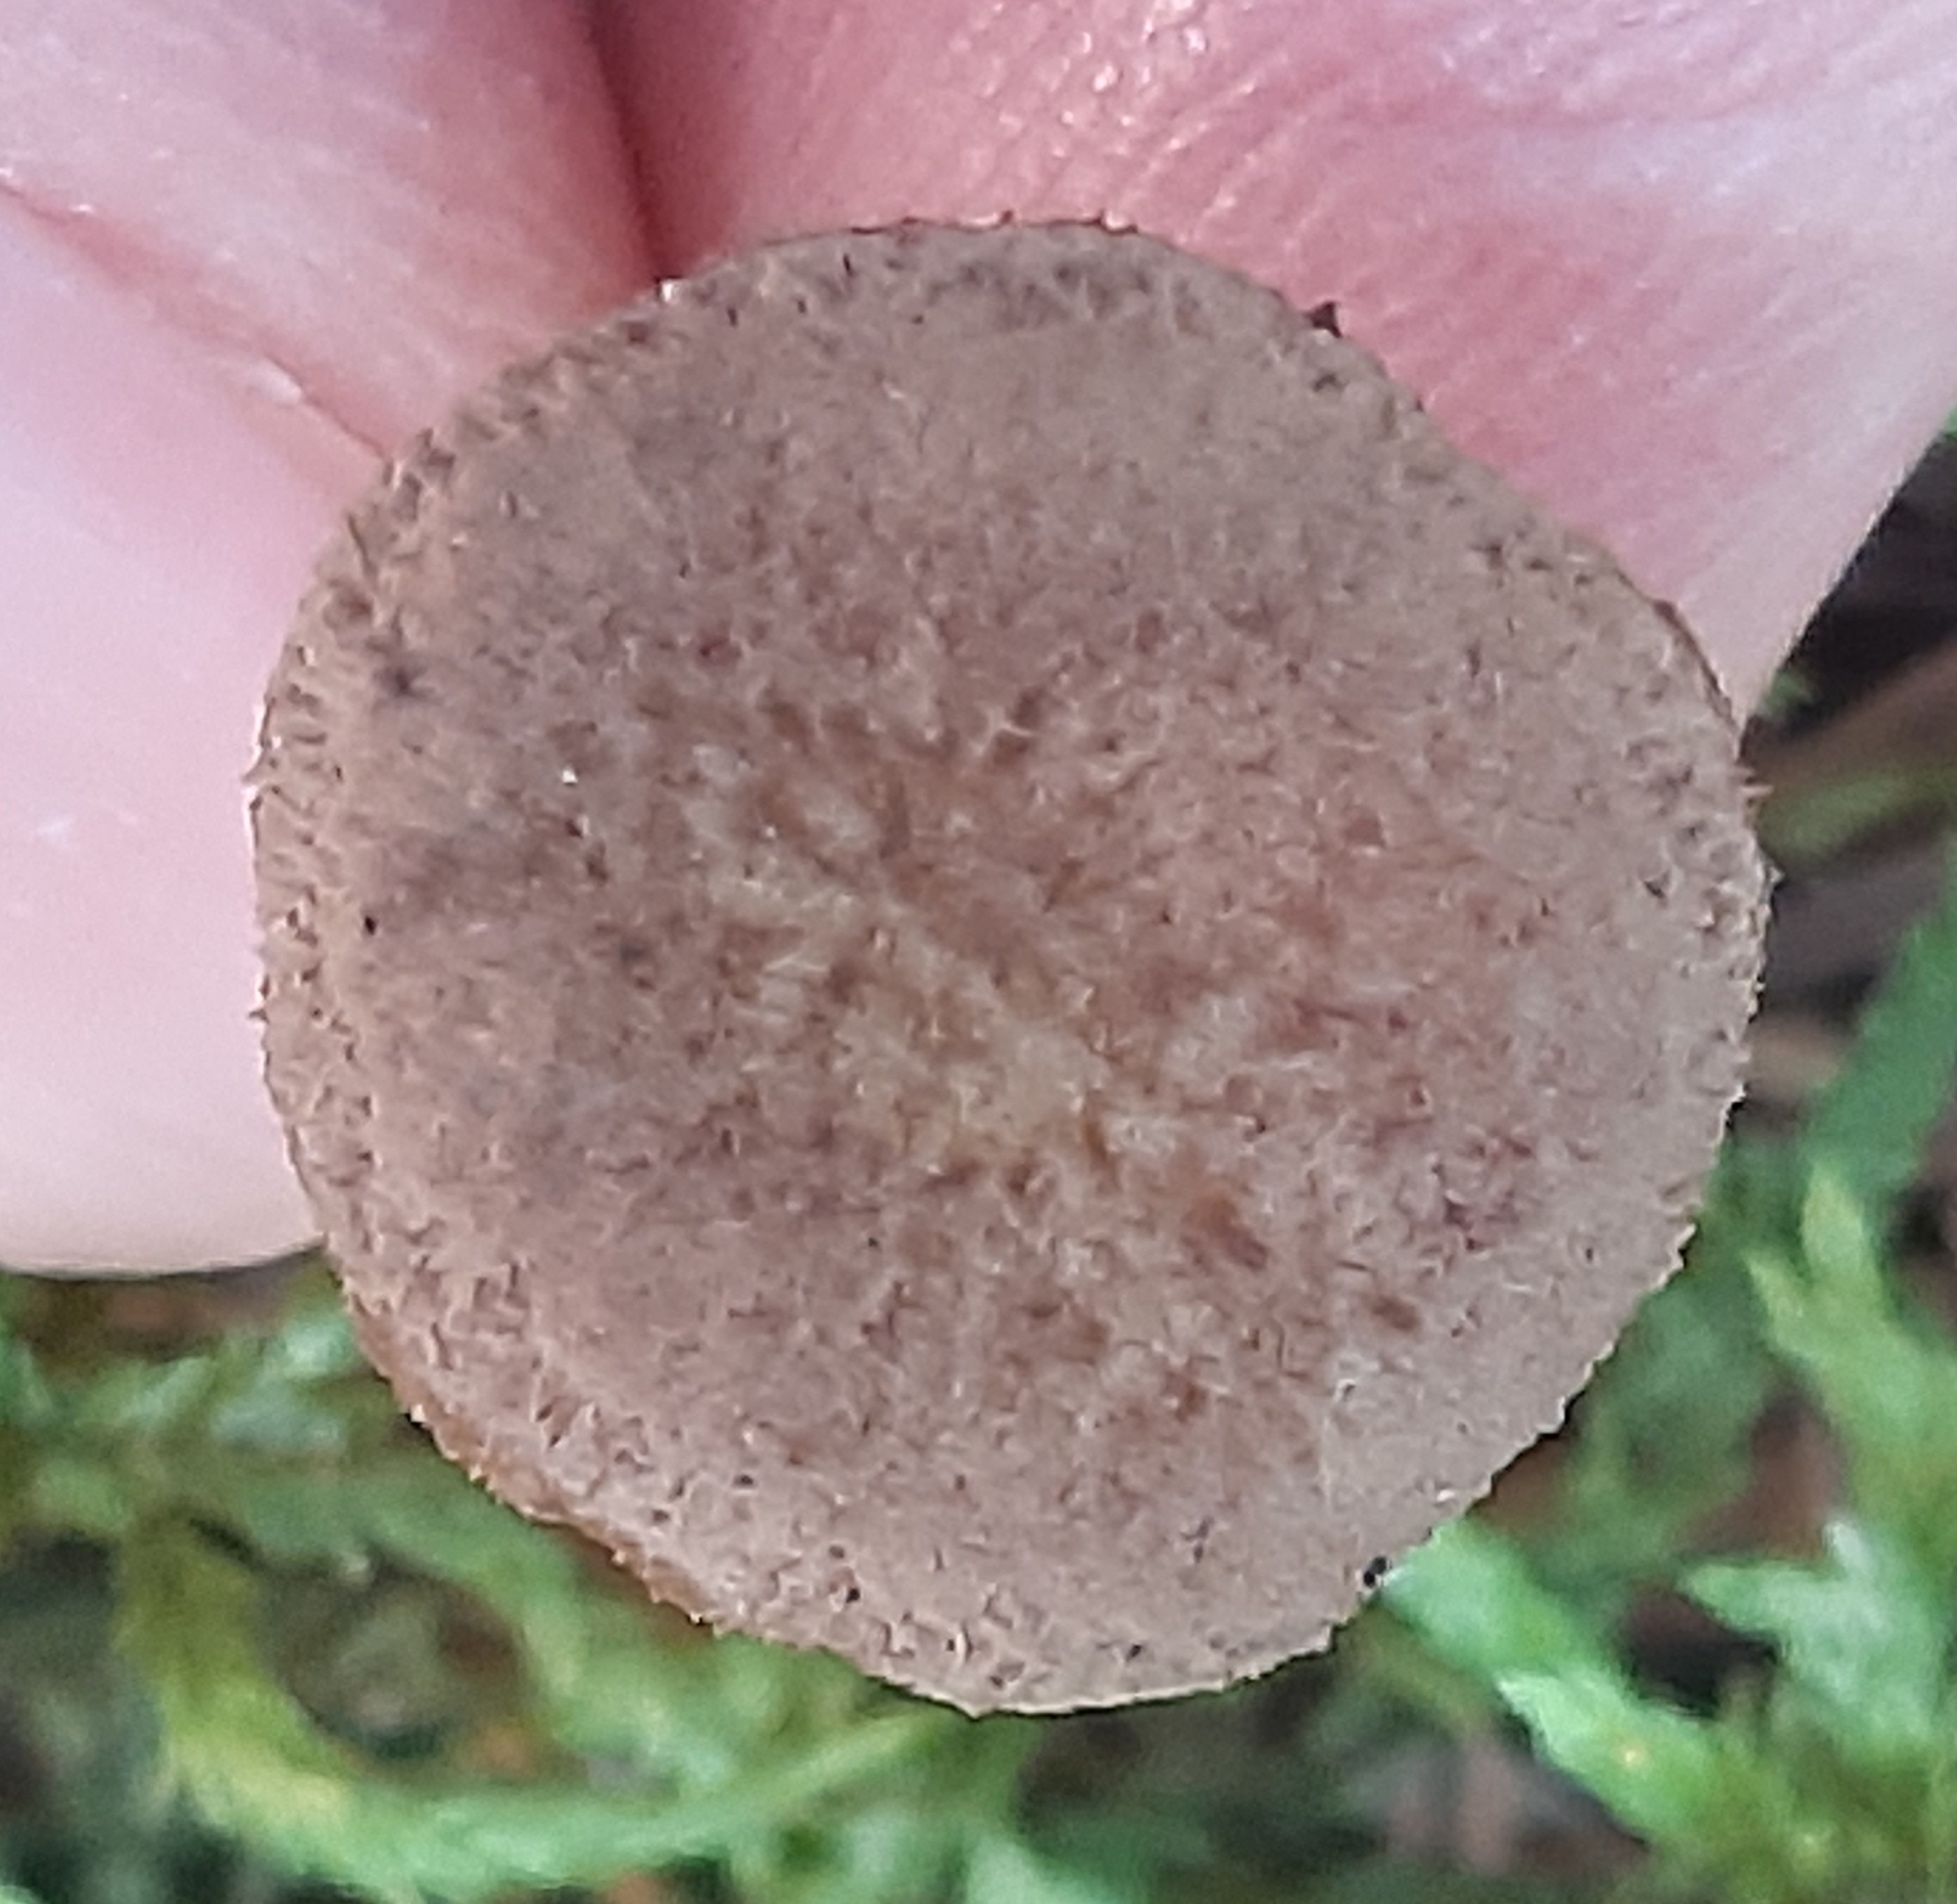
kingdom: Fungi
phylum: Basidiomycota
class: Agaricomycetes
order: Cantharellales
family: Hydnaceae
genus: Craterellus
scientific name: Craterellus tubaeformis
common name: Yellowfoot
